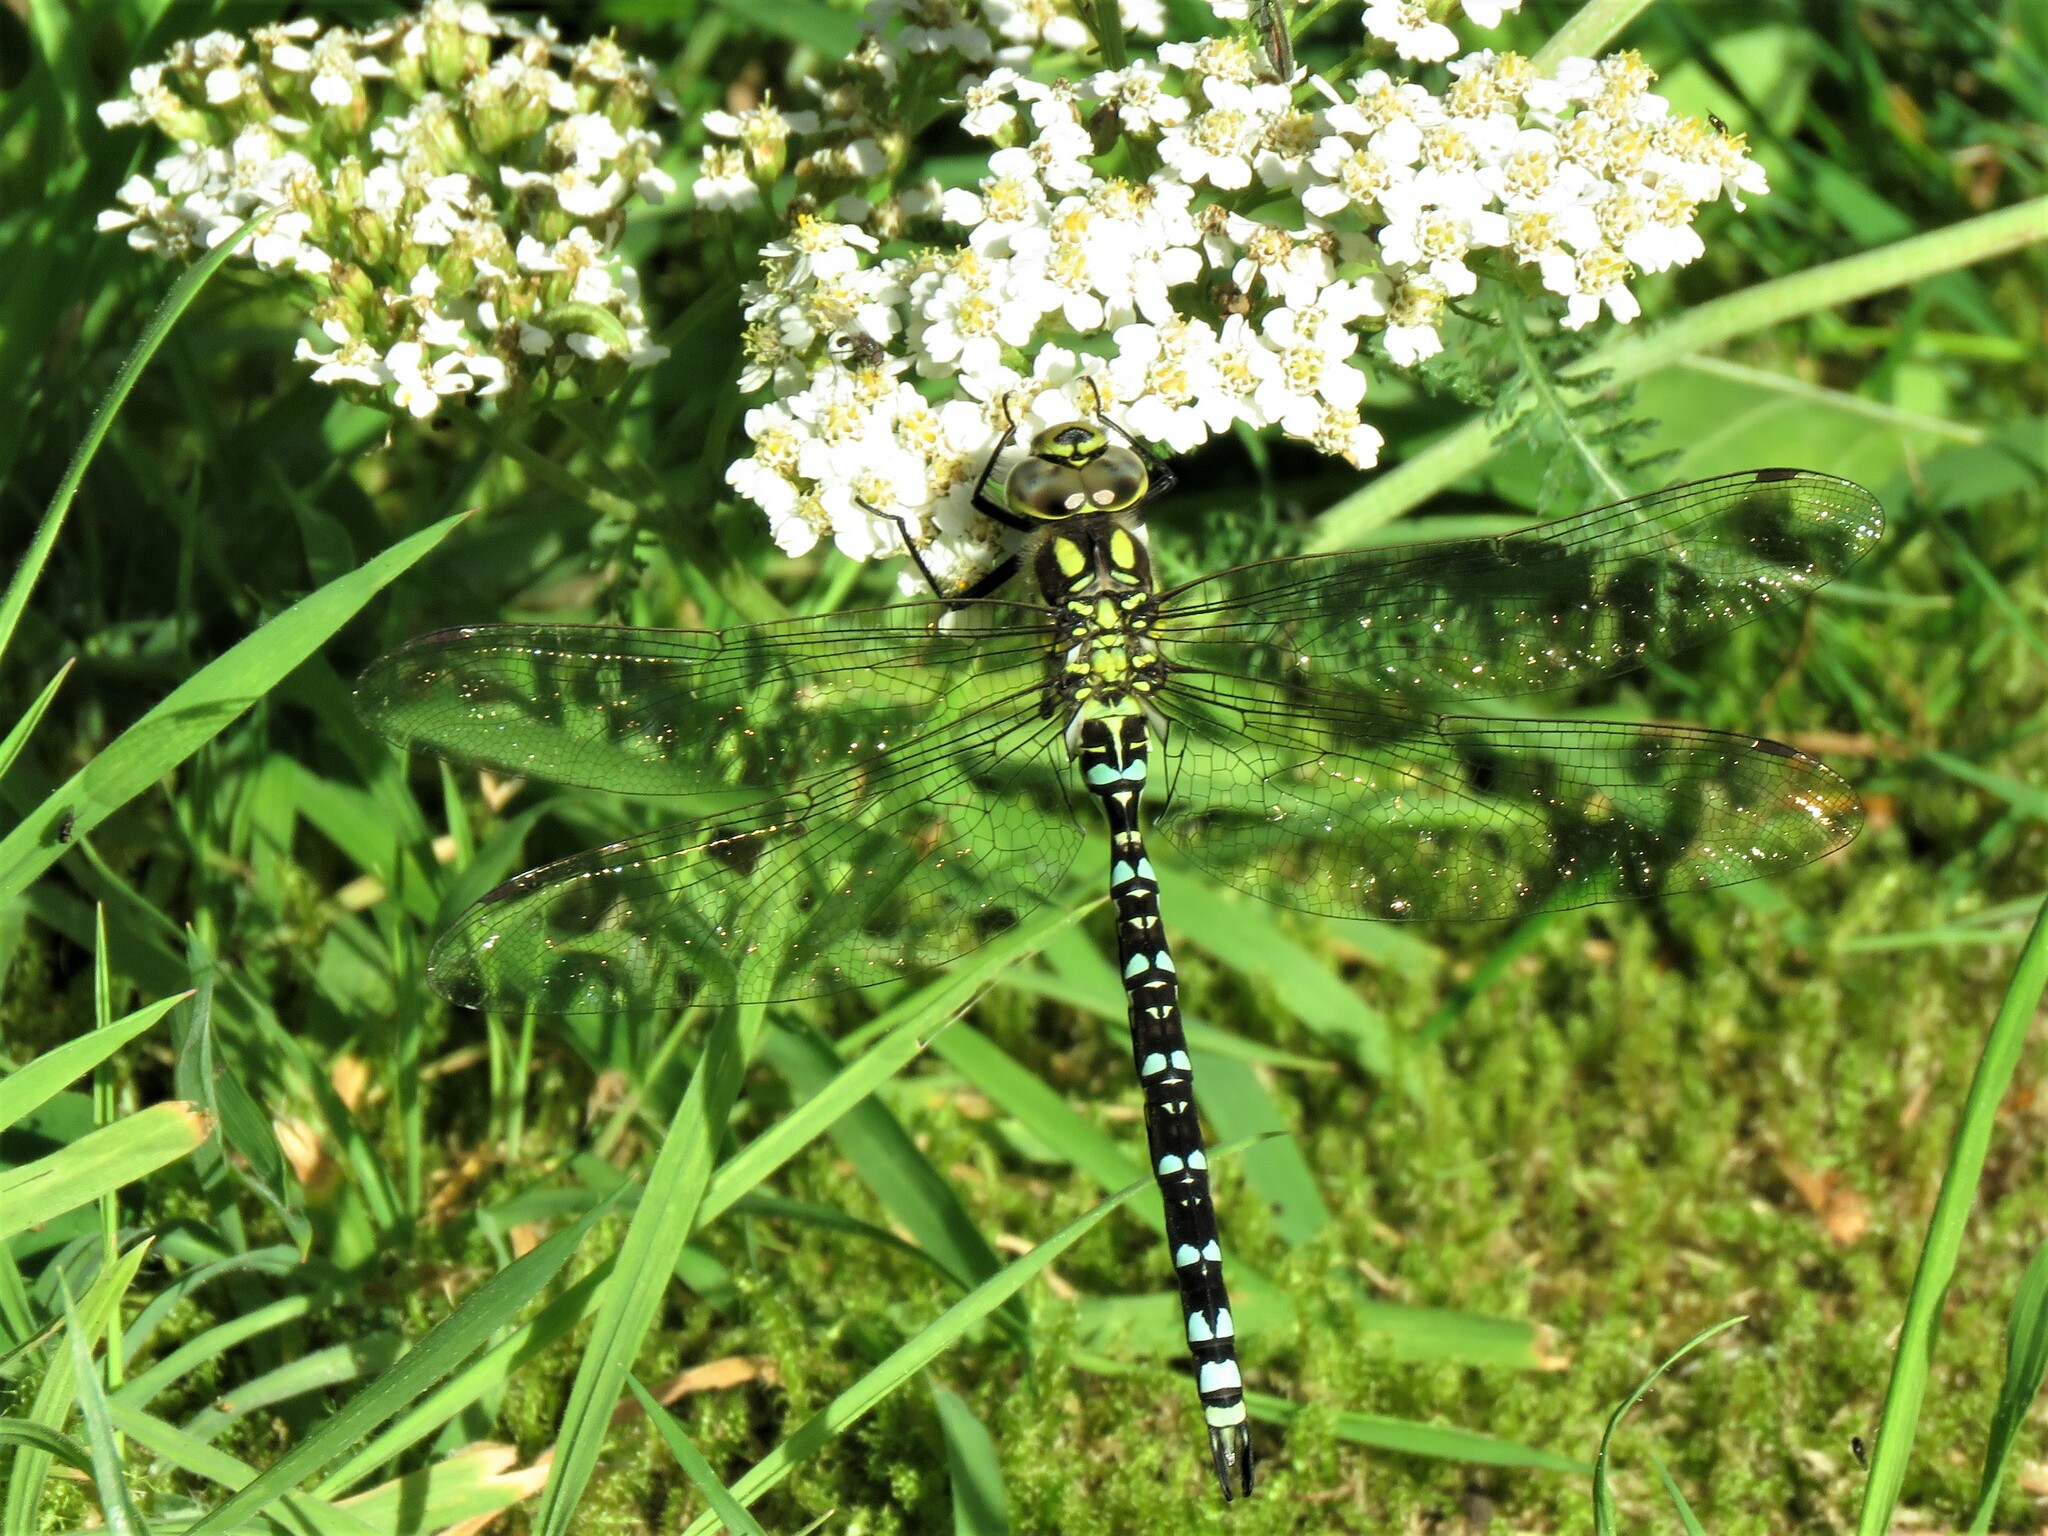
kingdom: Animalia
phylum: Arthropoda
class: Insecta
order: Odonata
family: Aeshnidae
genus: Aeshna
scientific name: Aeshna cyanea
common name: Southern hawker
